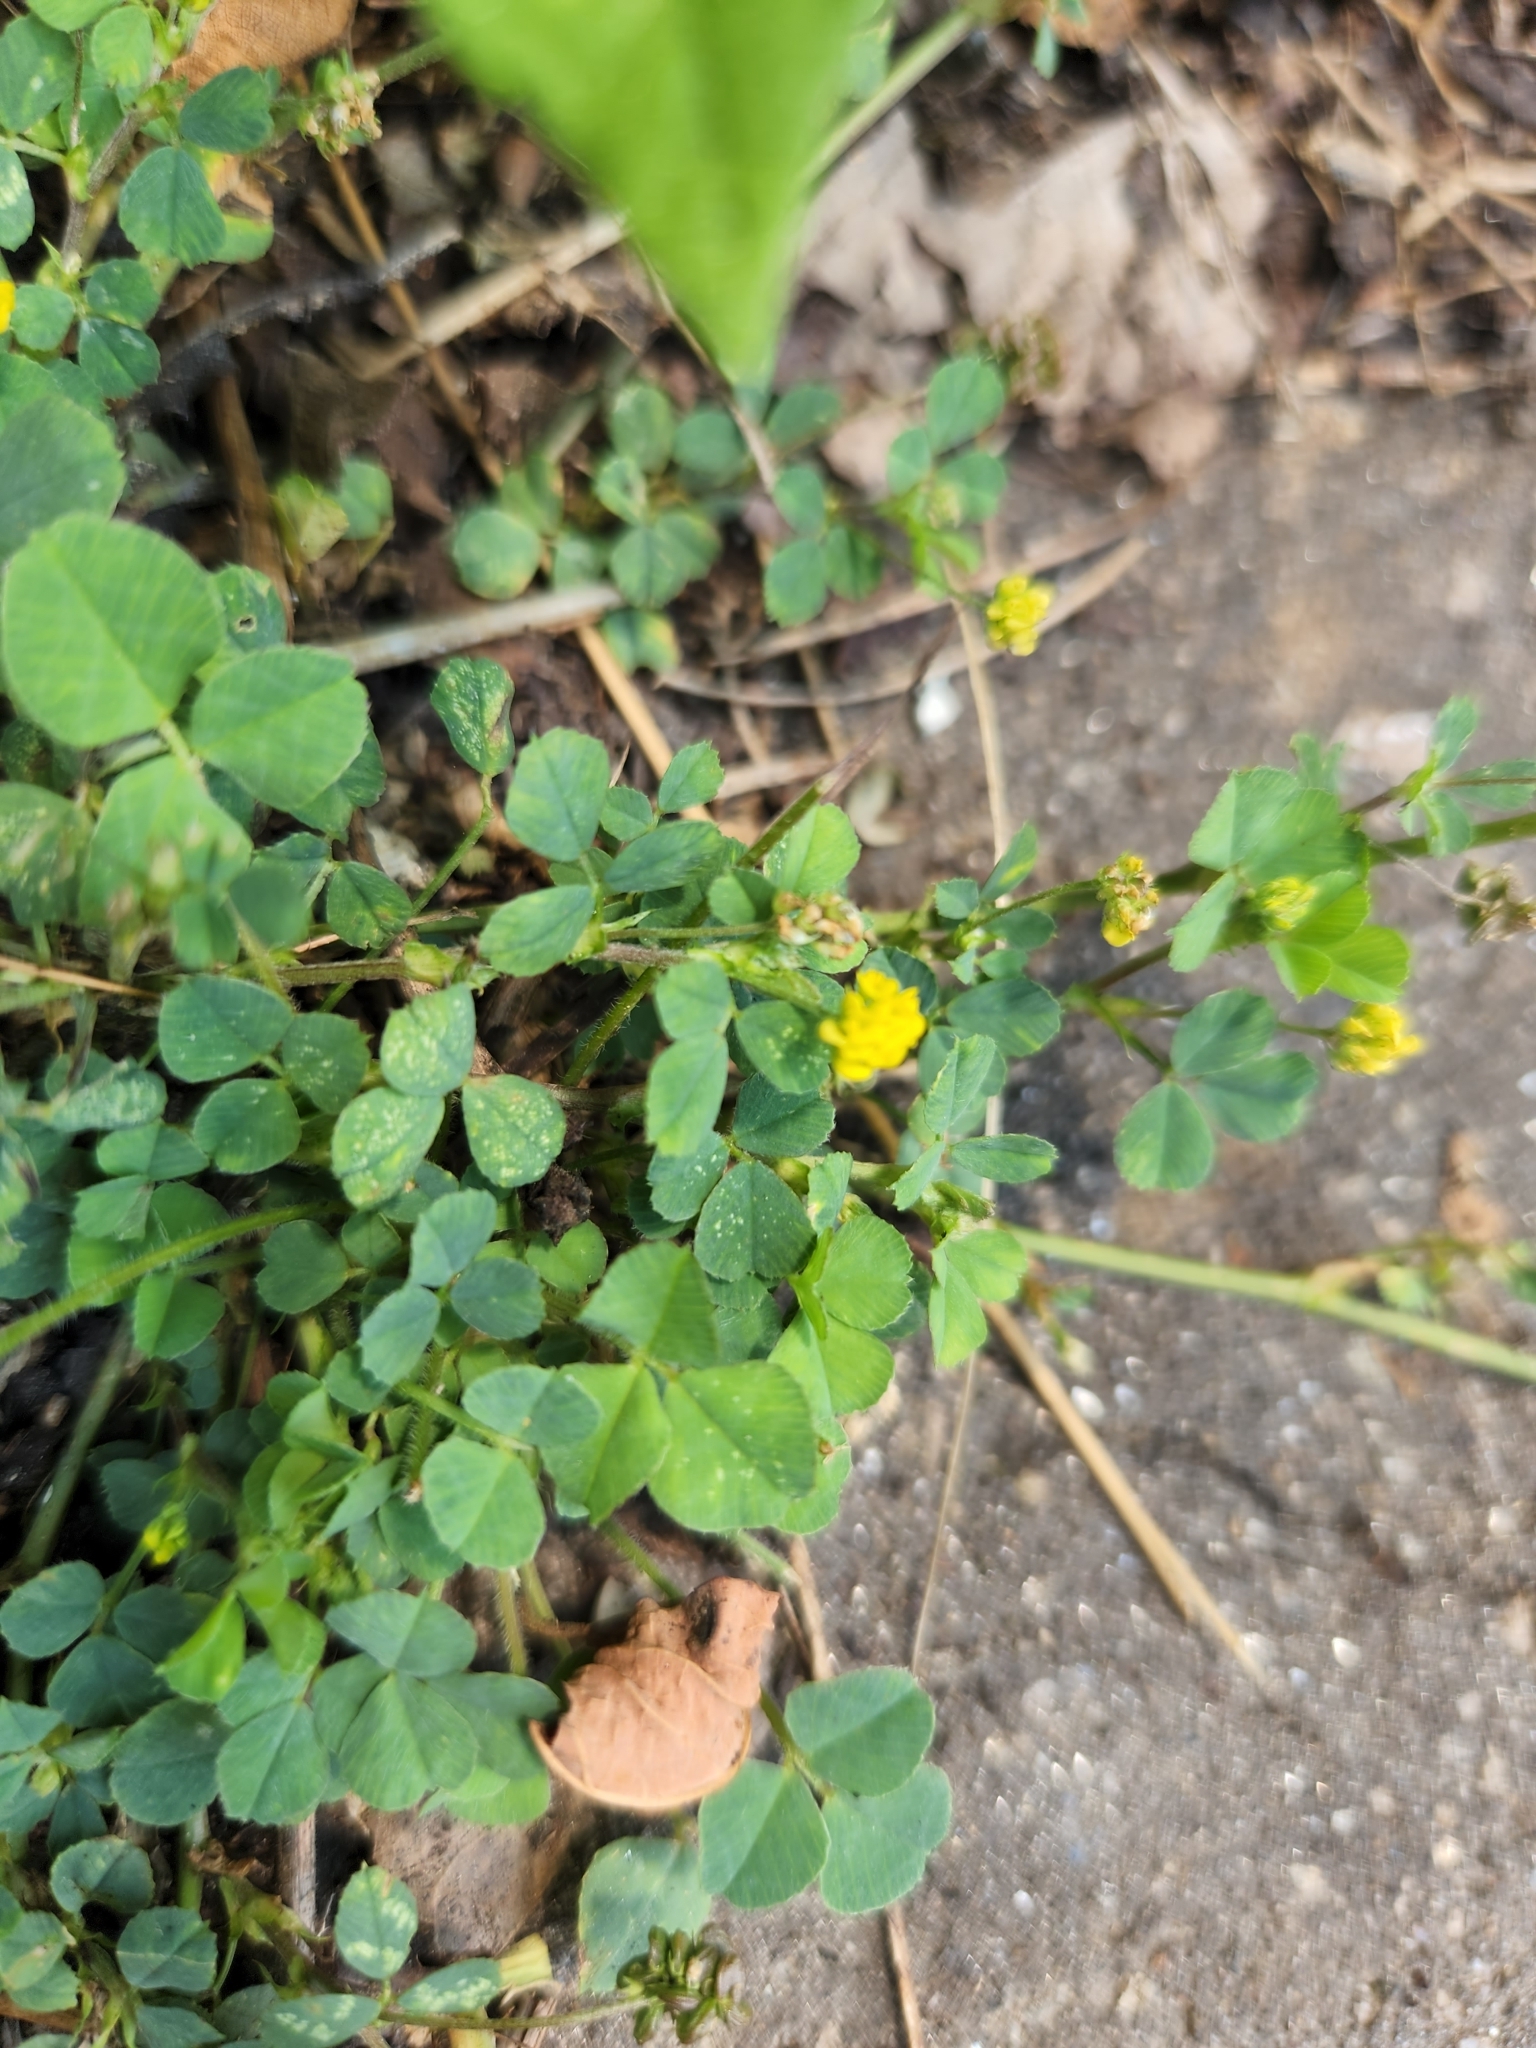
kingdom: Plantae
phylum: Tracheophyta
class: Magnoliopsida
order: Fabales
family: Fabaceae
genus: Medicago
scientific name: Medicago lupulina
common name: Black medick
